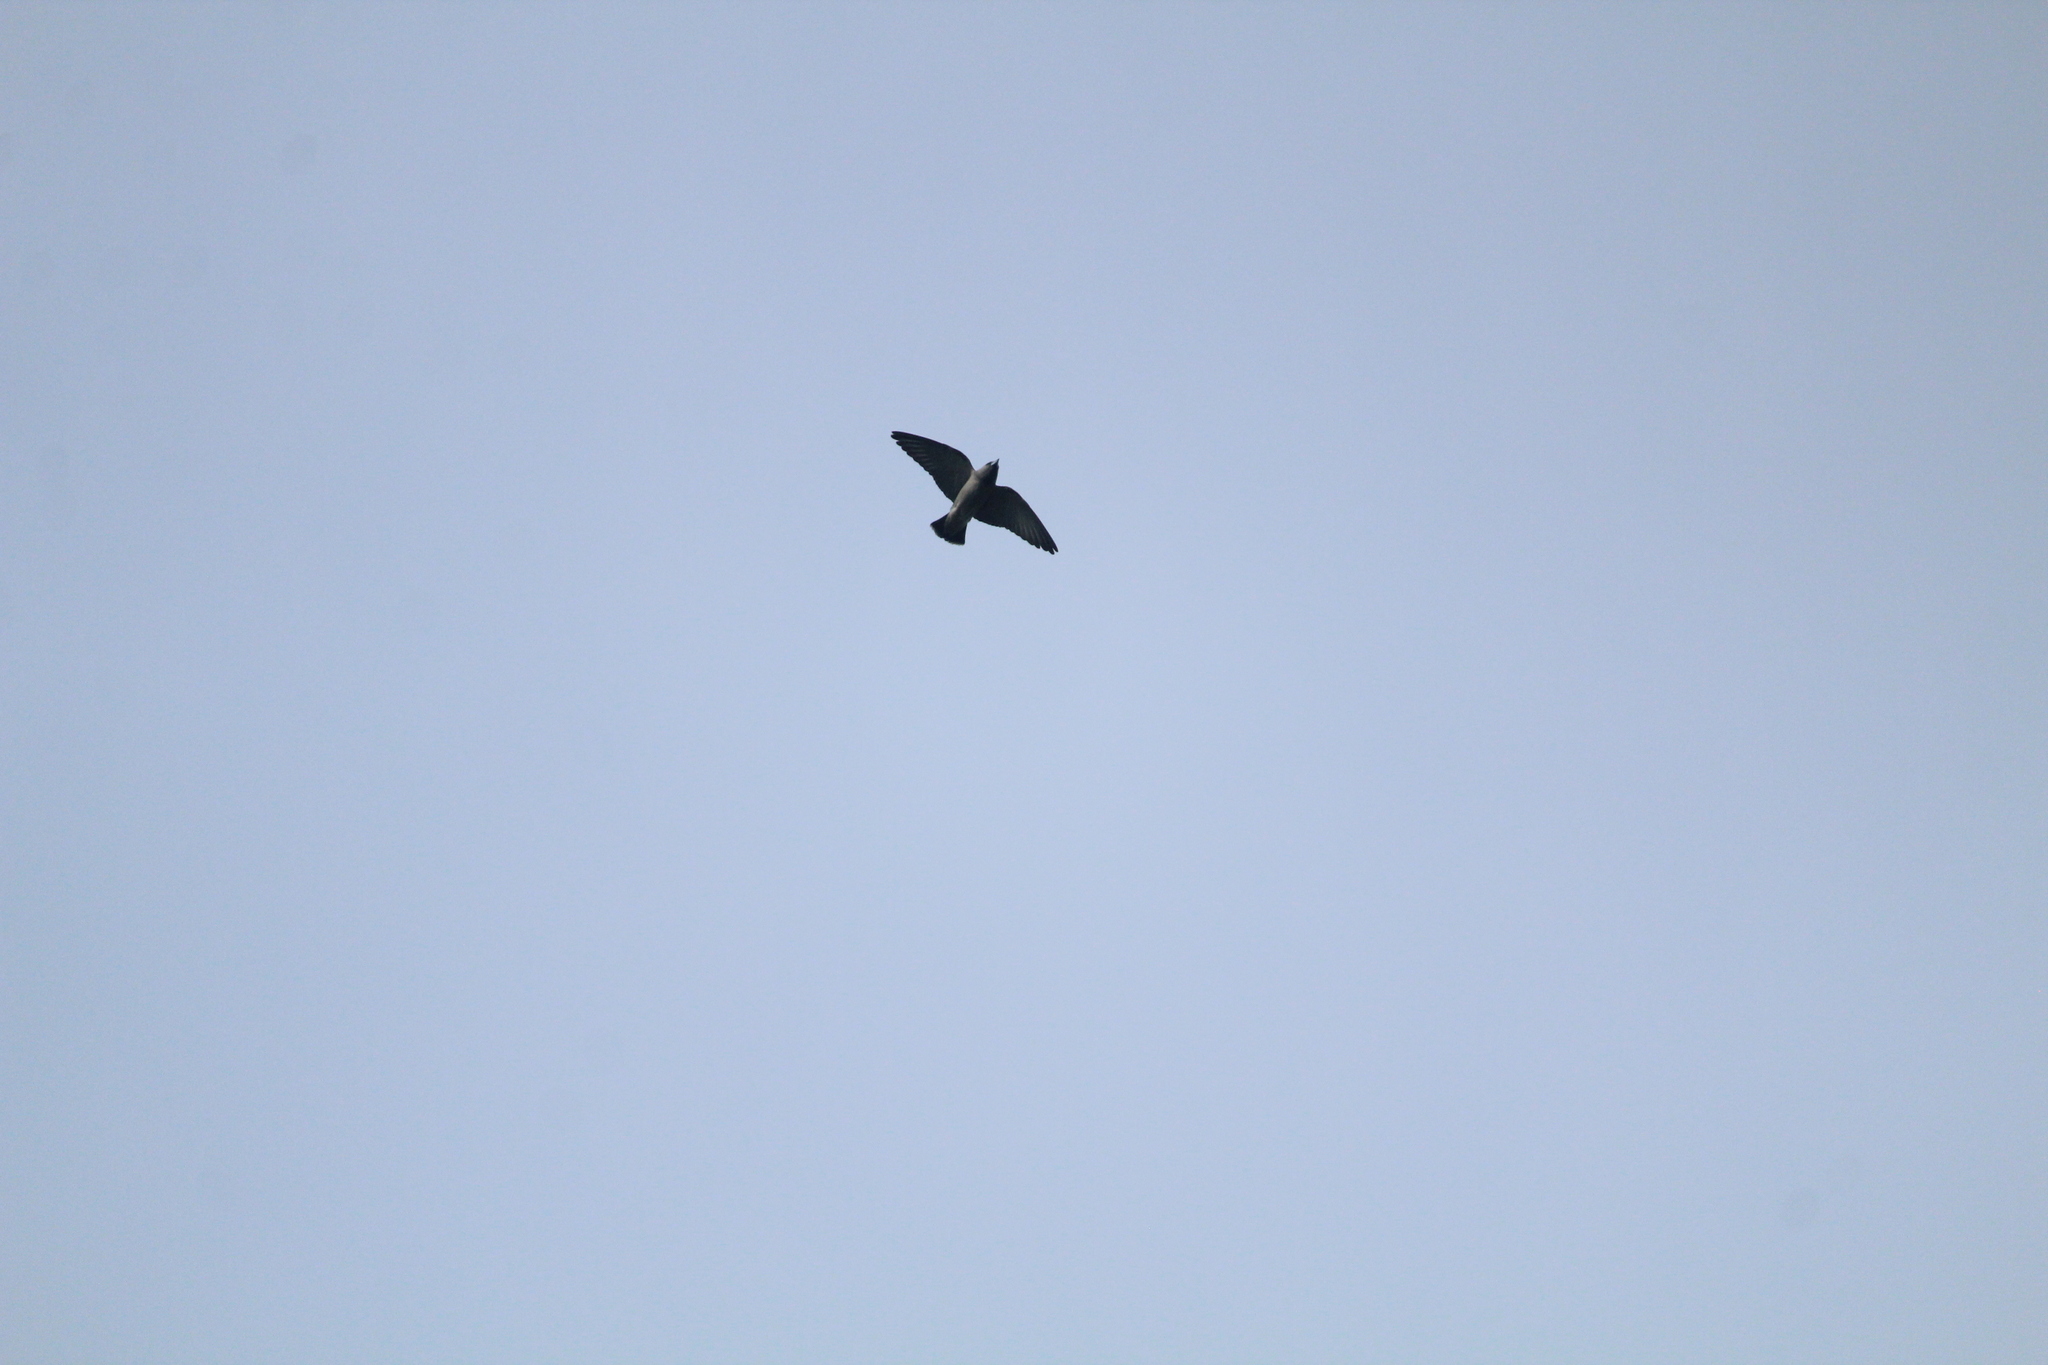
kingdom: Animalia
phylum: Chordata
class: Aves
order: Passeriformes
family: Artamidae
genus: Artamus
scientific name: Artamus fuscus
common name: Ashy woodswallow
